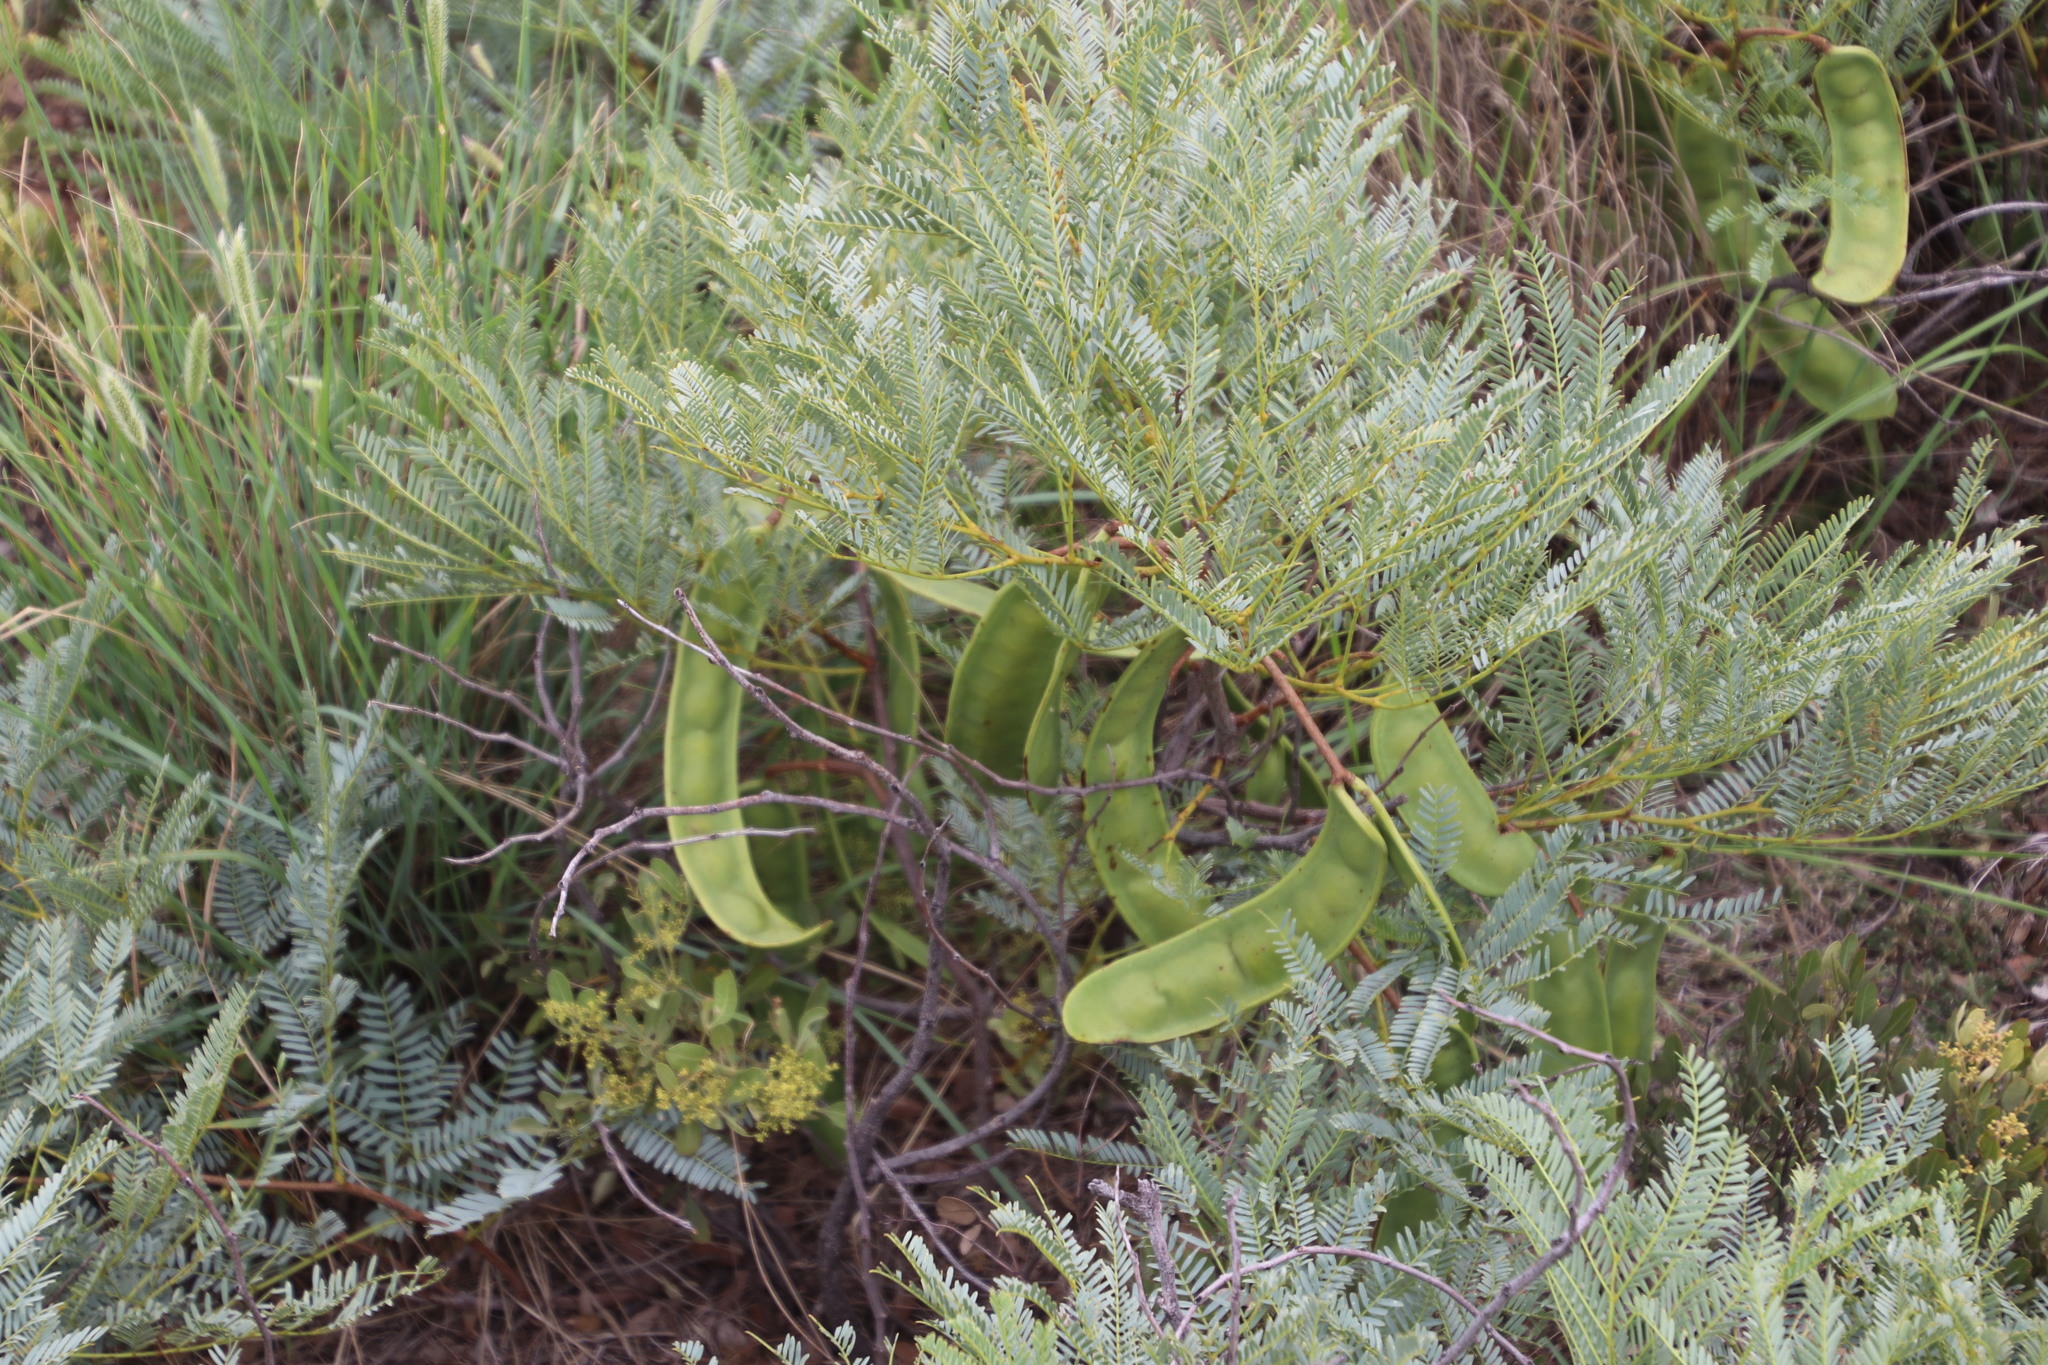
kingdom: Plantae
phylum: Tracheophyta
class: Magnoliopsida
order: Fabales
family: Fabaceae
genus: Elephantorrhiza
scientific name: Elephantorrhiza burkei
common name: Broad-pod elephant-root
